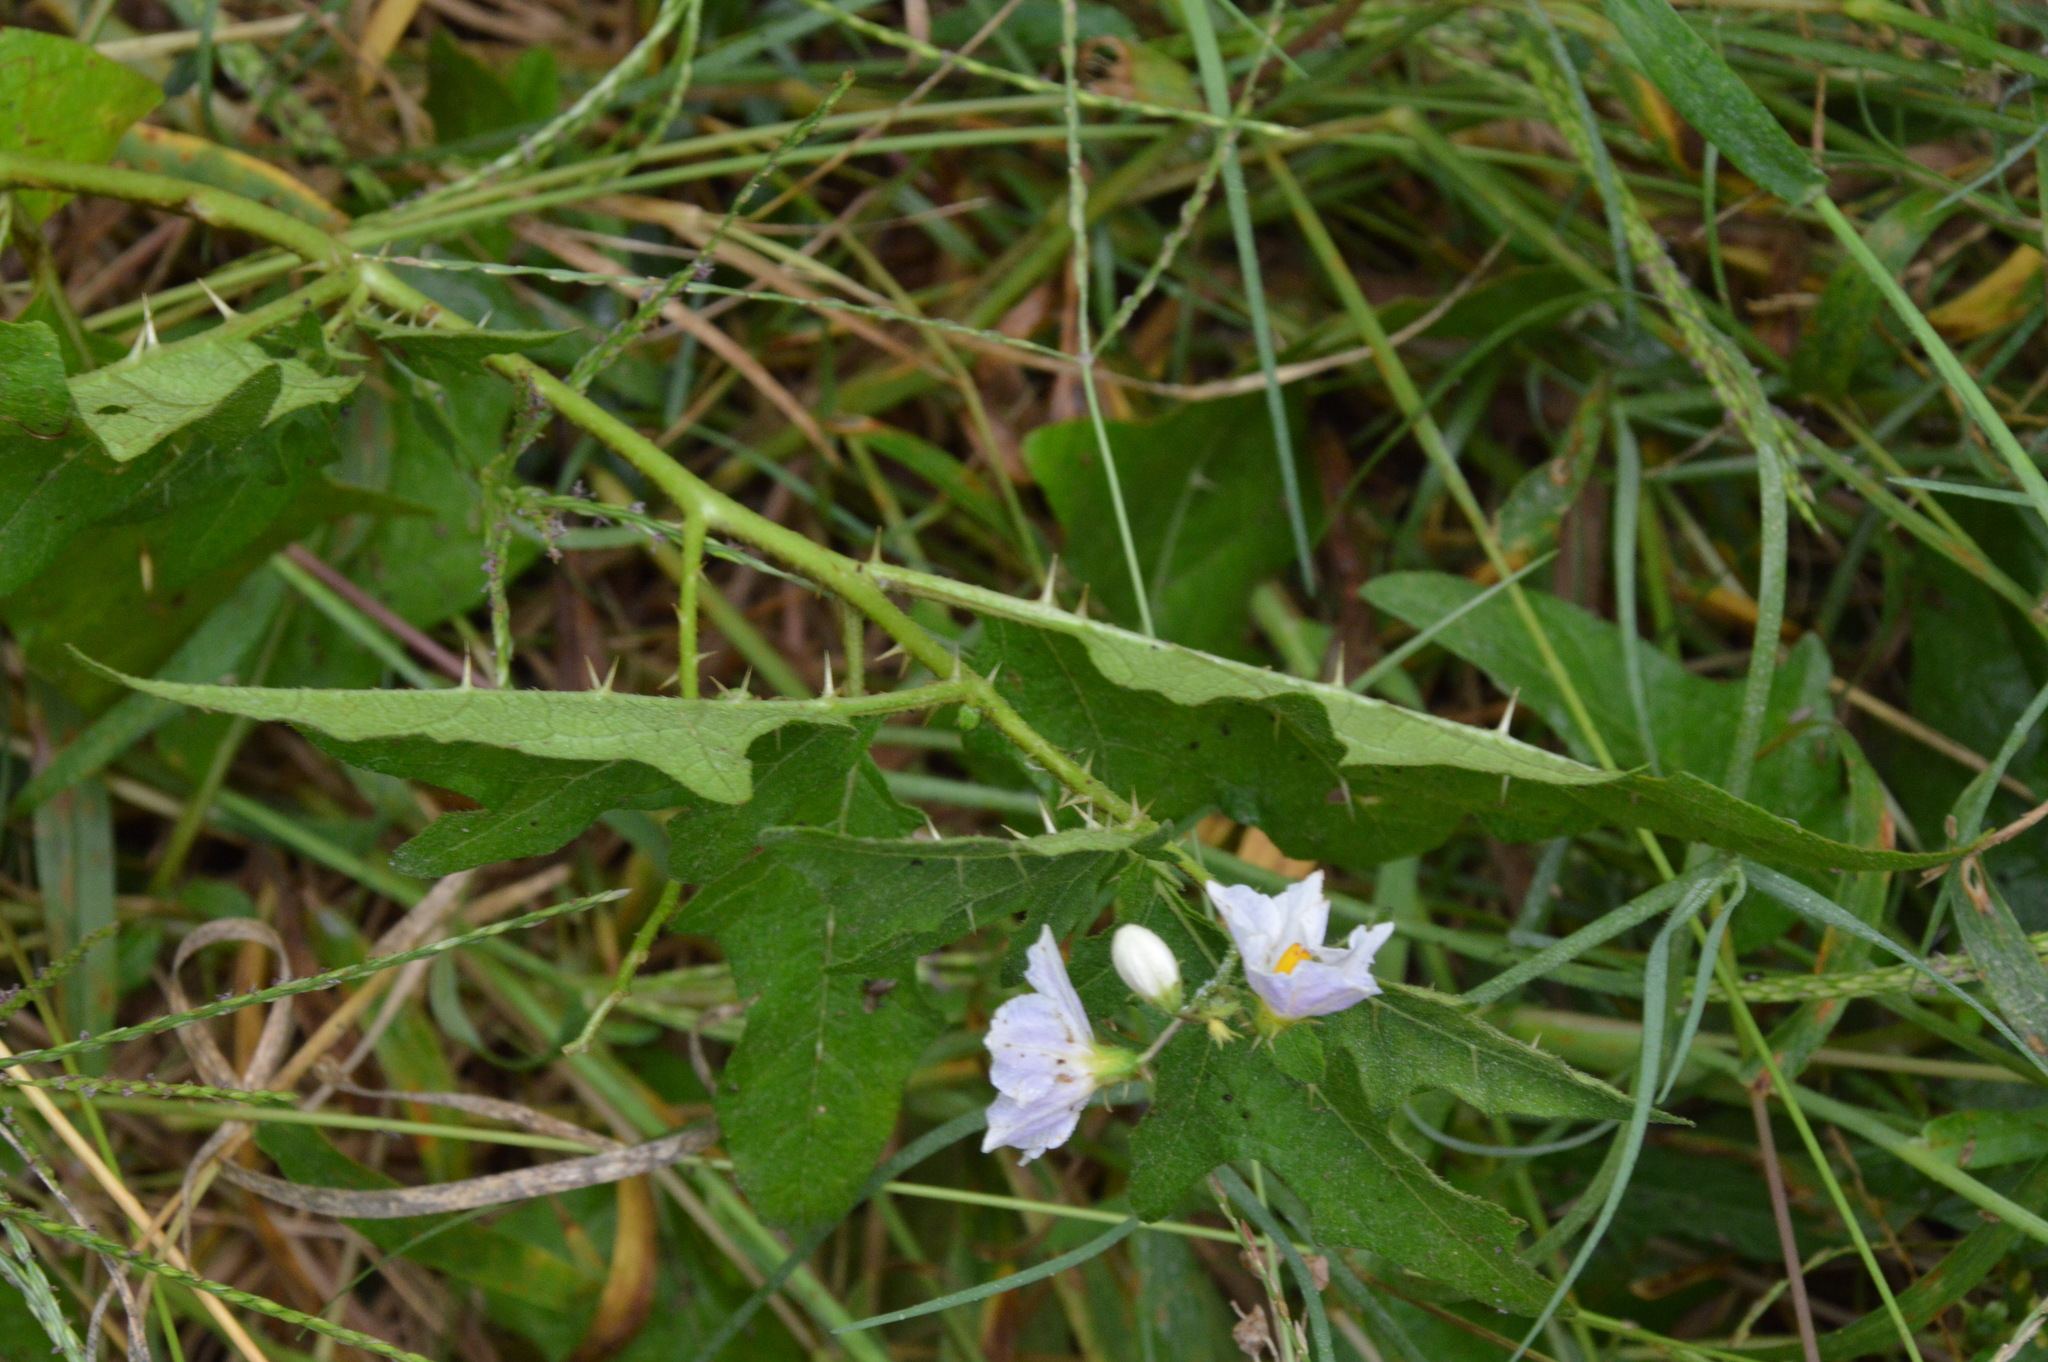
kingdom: Plantae
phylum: Tracheophyta
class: Magnoliopsida
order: Solanales
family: Solanaceae
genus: Solanum
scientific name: Solanum carolinense
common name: Horse-nettle
